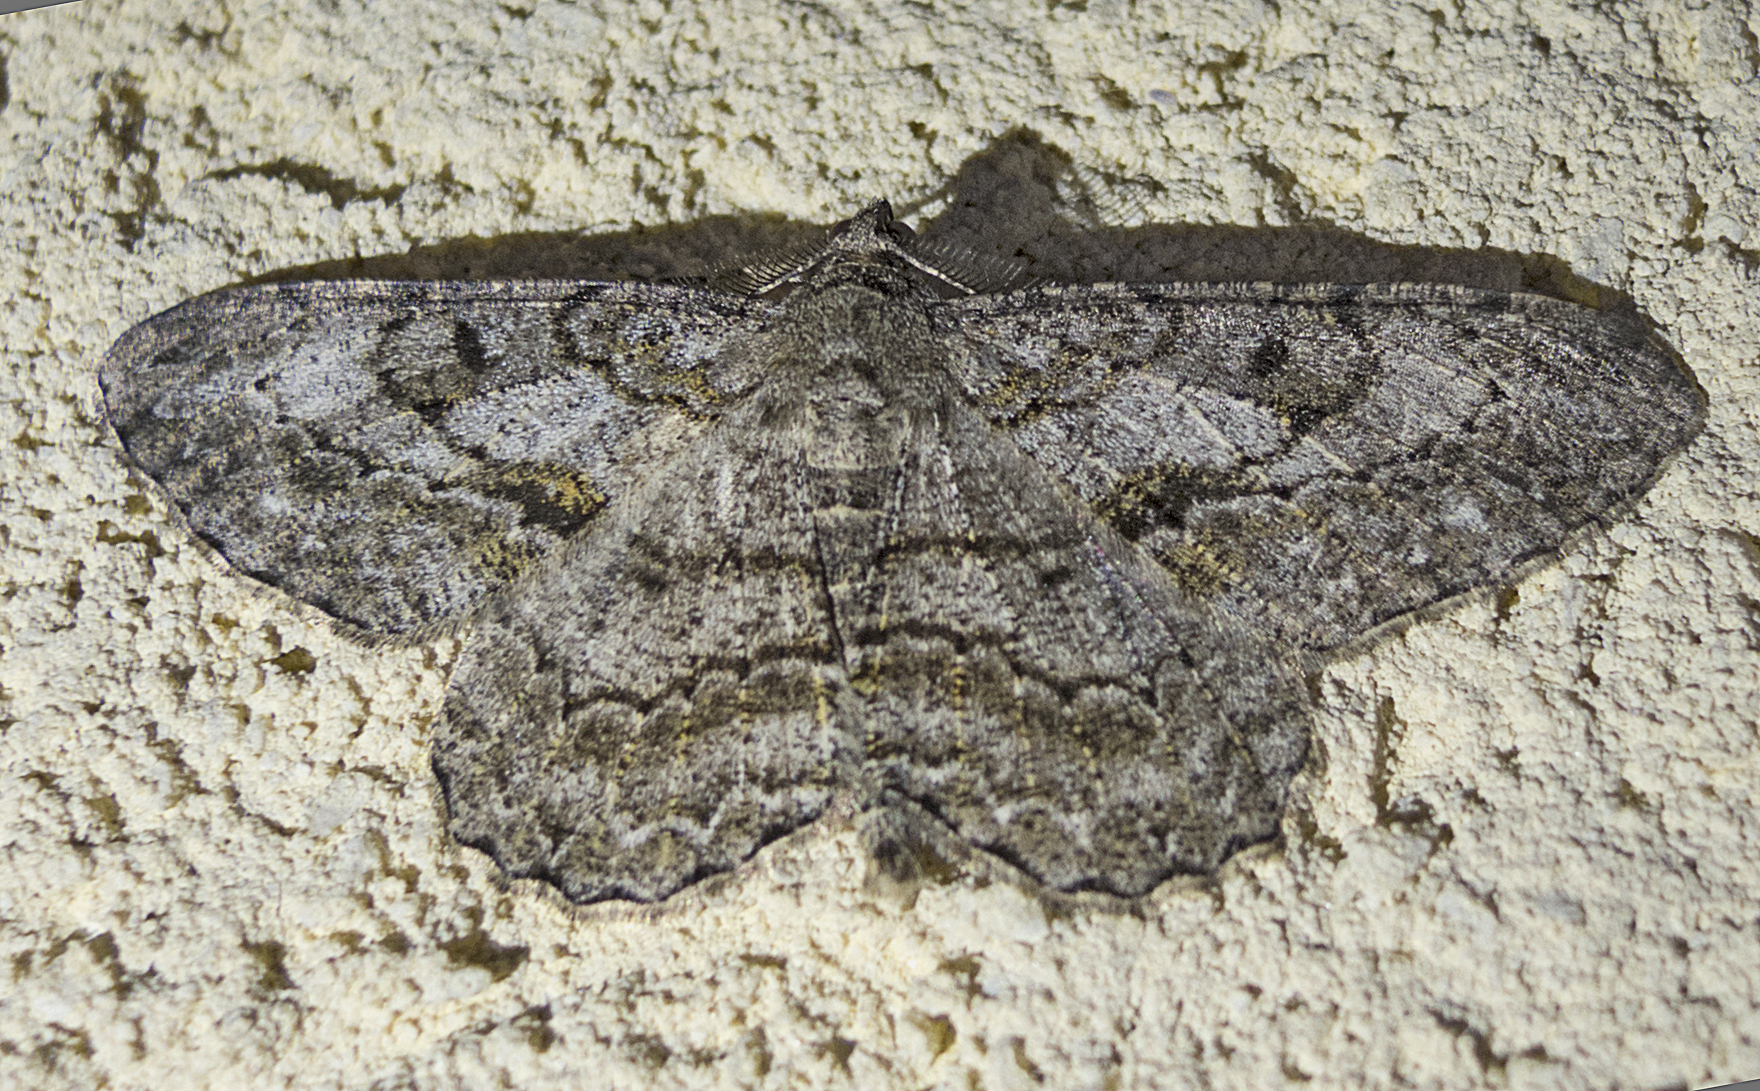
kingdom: Animalia
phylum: Arthropoda
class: Insecta
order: Lepidoptera
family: Geometridae
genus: Peribatodes
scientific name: Peribatodes rhomboidaria
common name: Willow beauty
